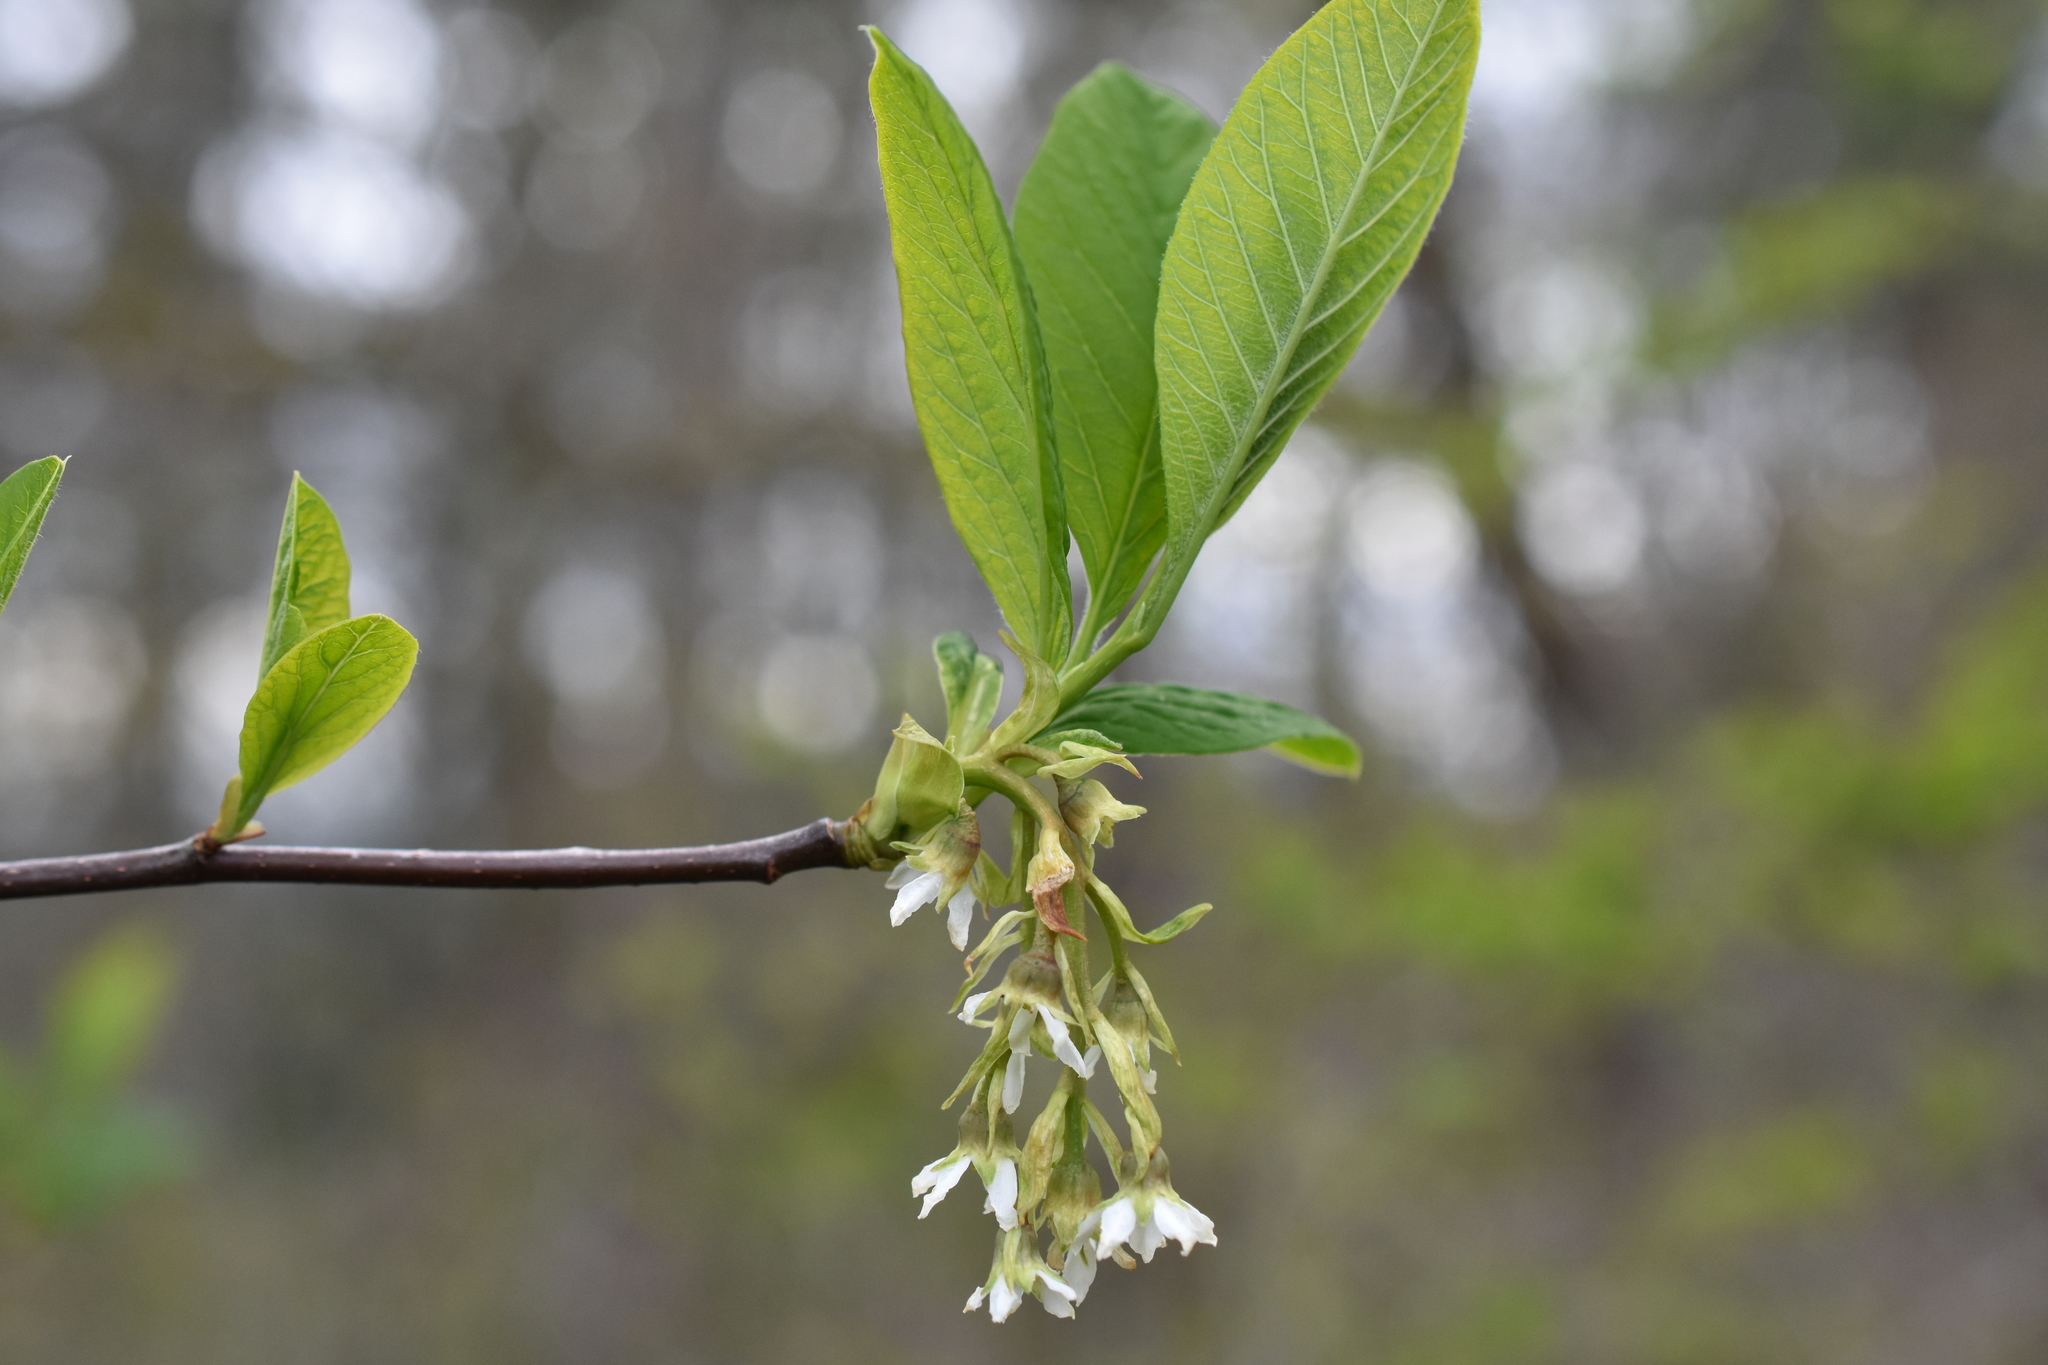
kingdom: Plantae
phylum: Tracheophyta
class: Magnoliopsida
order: Rosales
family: Rosaceae
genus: Oemleria
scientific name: Oemleria cerasiformis
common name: Osoberry
